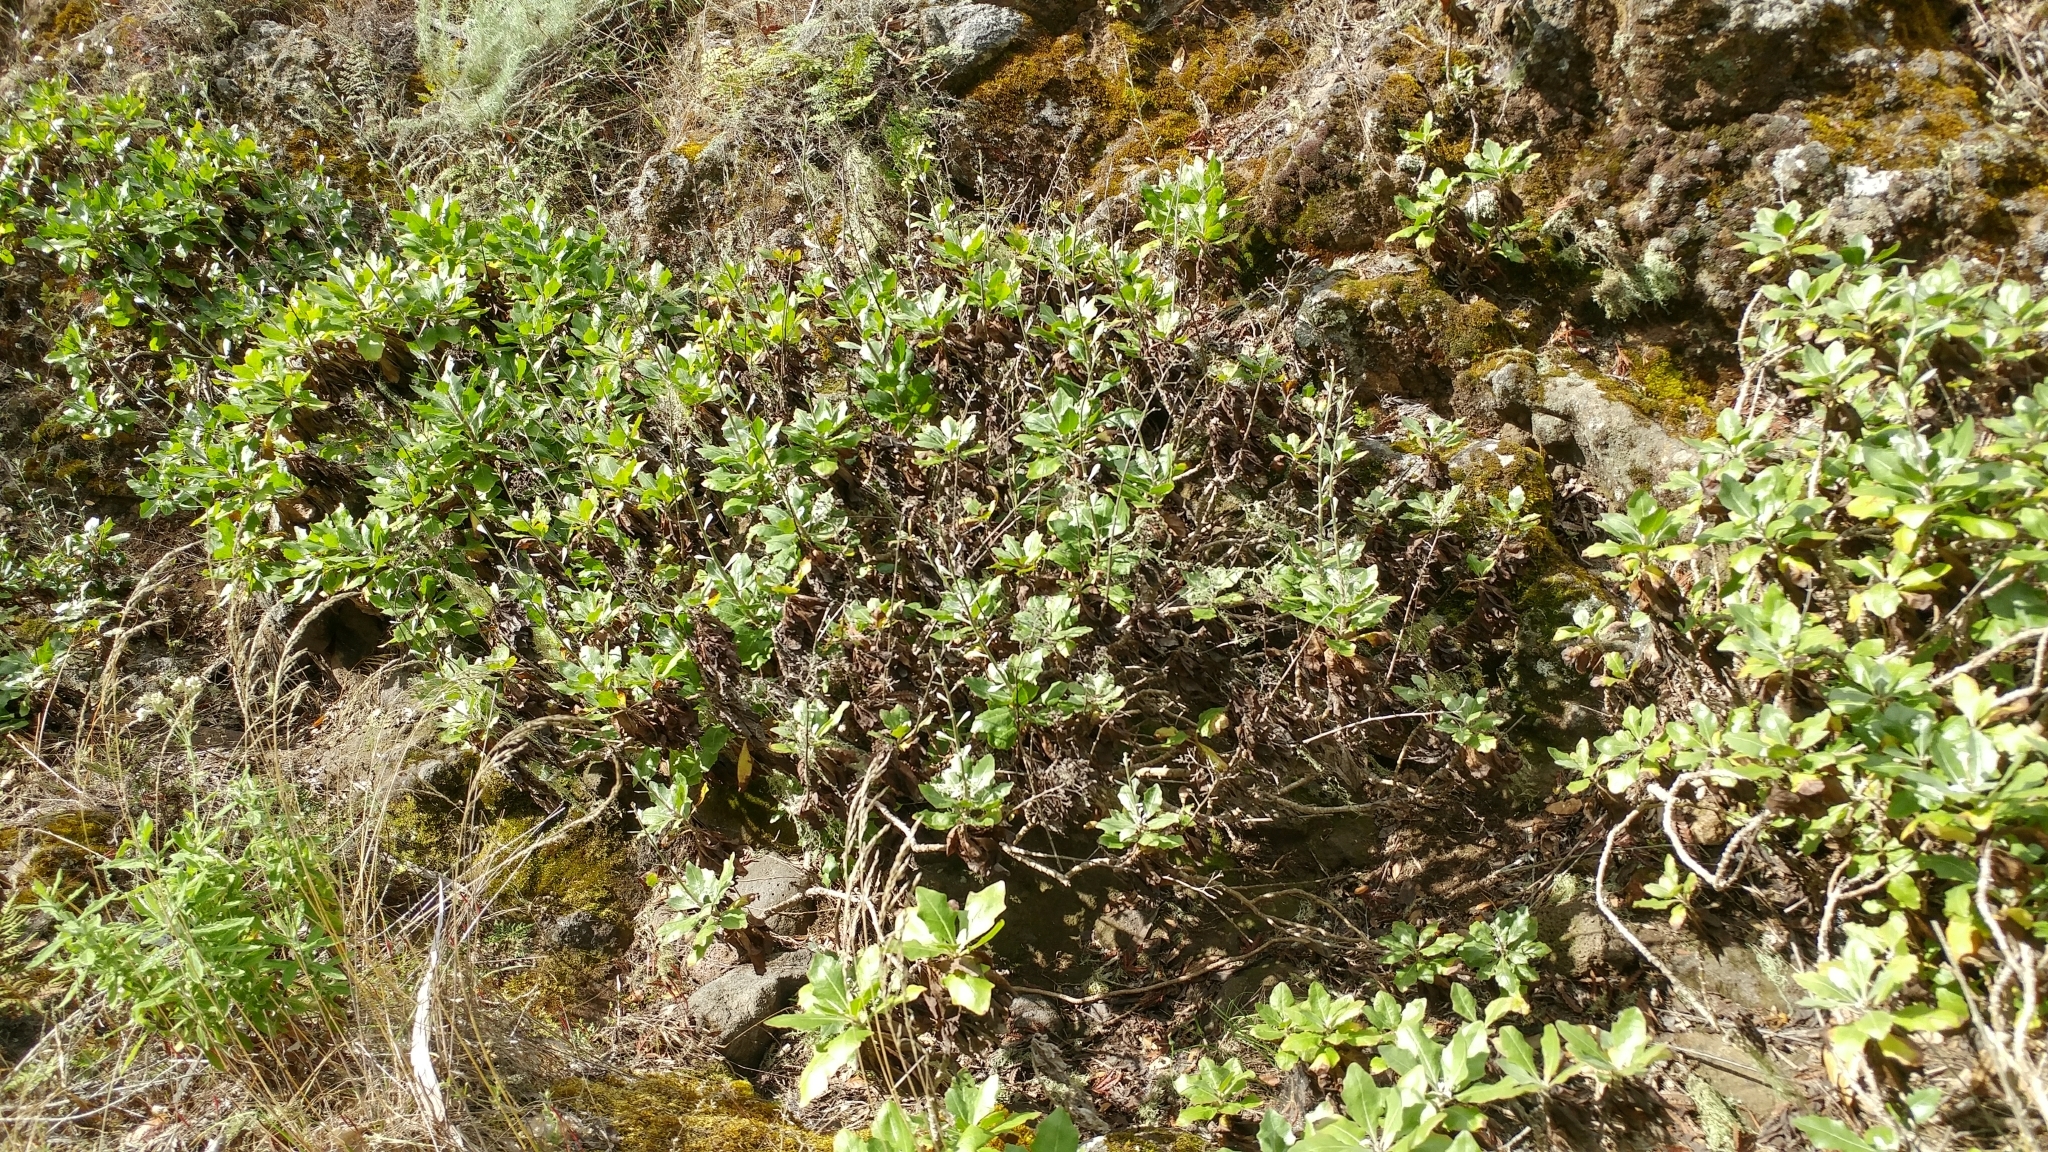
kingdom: Plantae
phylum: Tracheophyta
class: Magnoliopsida
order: Asterales
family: Asteraceae
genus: Munzothamnus
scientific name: Munzothamnus blairii
